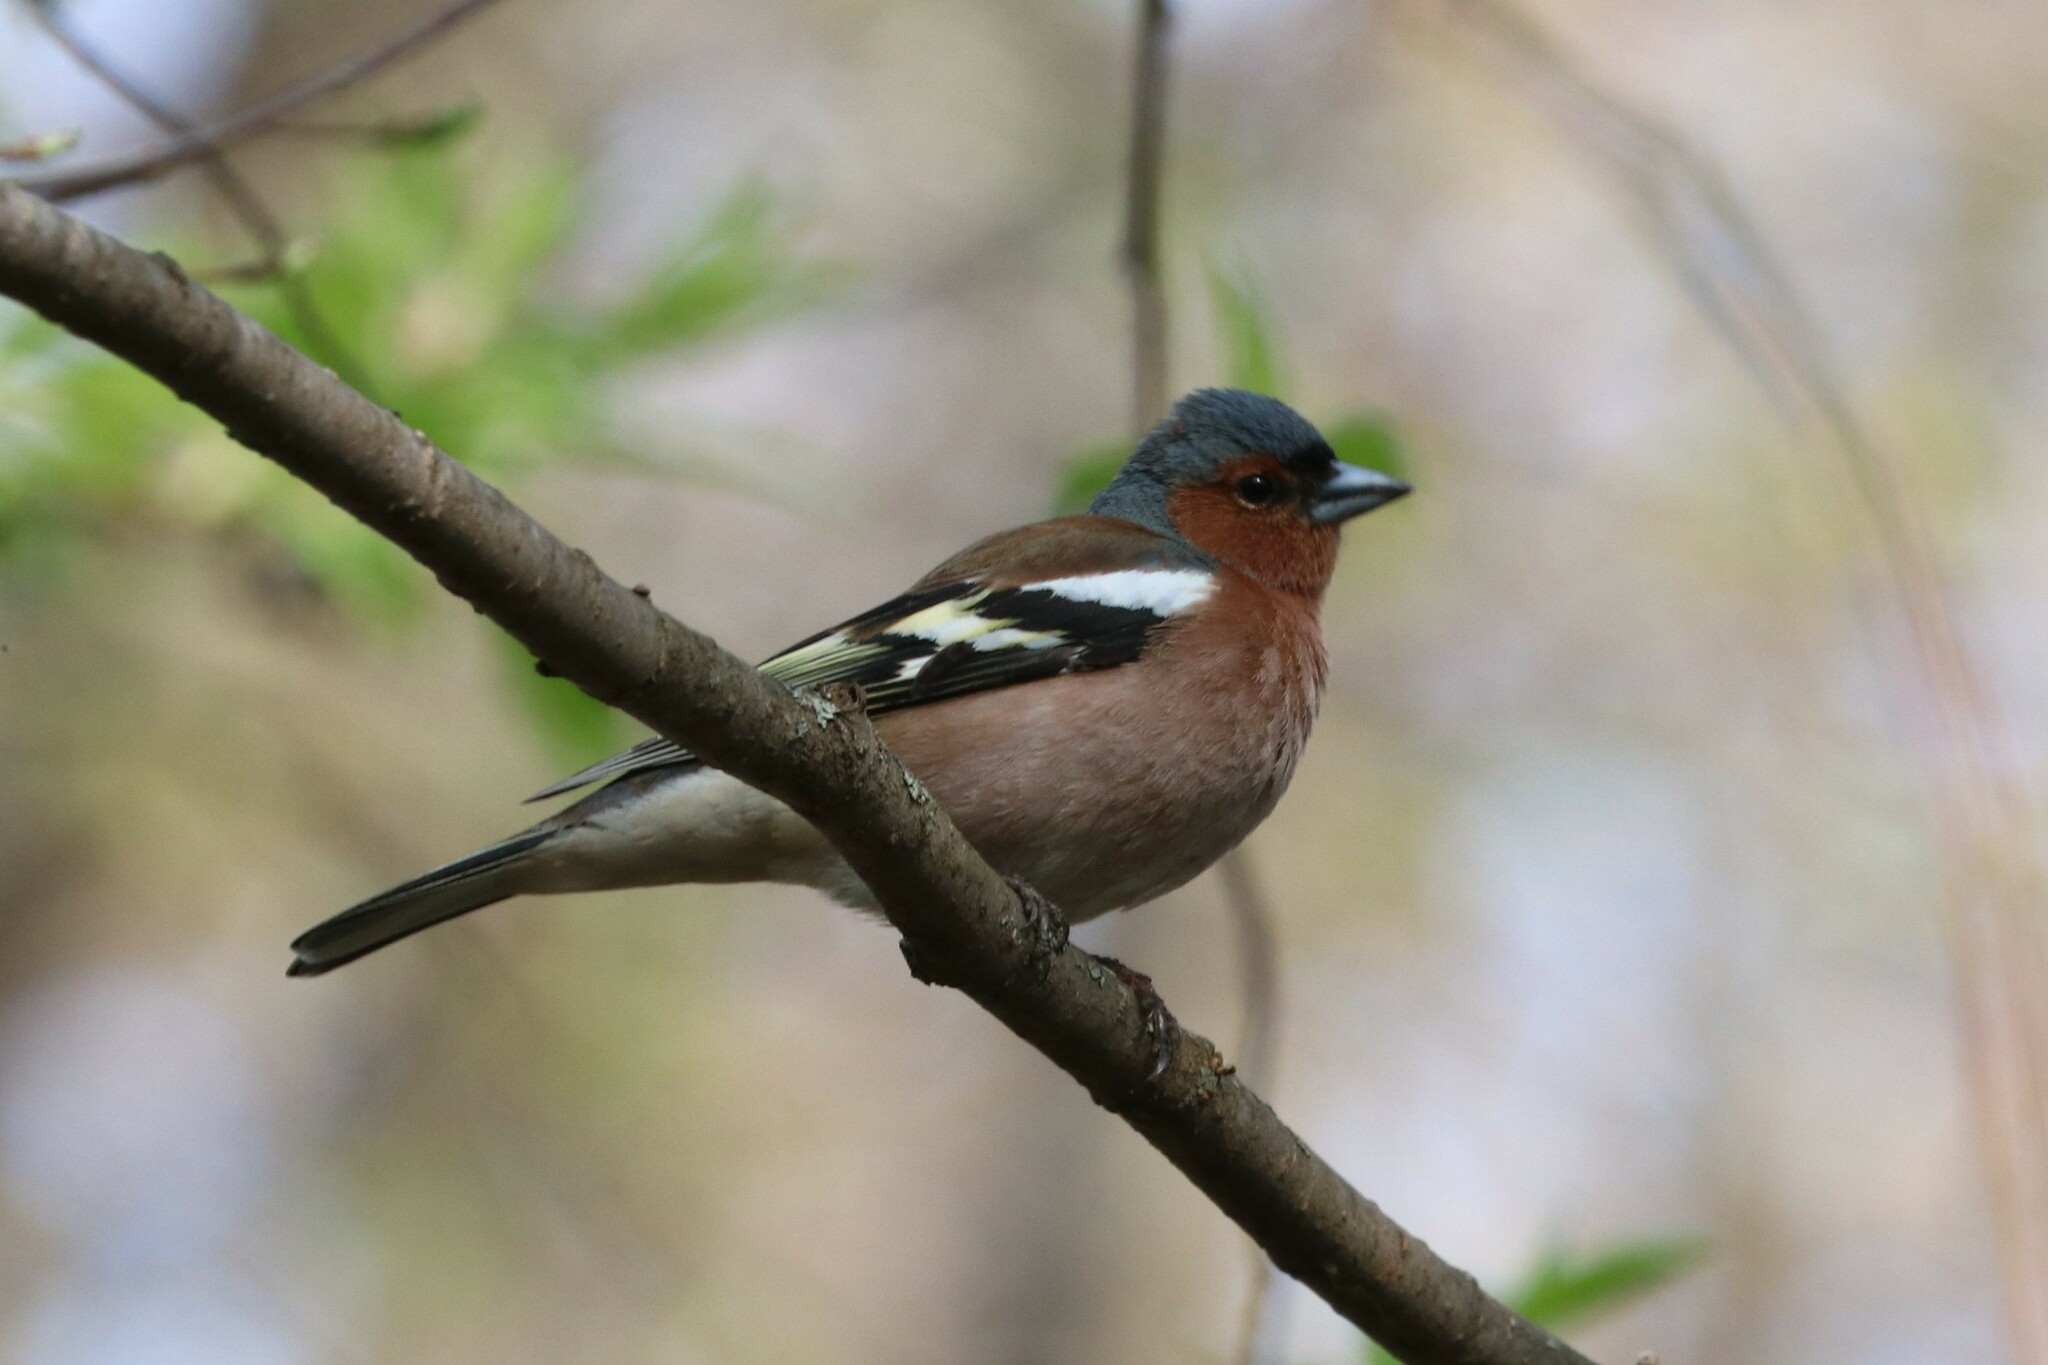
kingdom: Animalia
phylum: Chordata
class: Aves
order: Passeriformes
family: Fringillidae
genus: Fringilla
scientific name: Fringilla coelebs
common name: Common chaffinch
